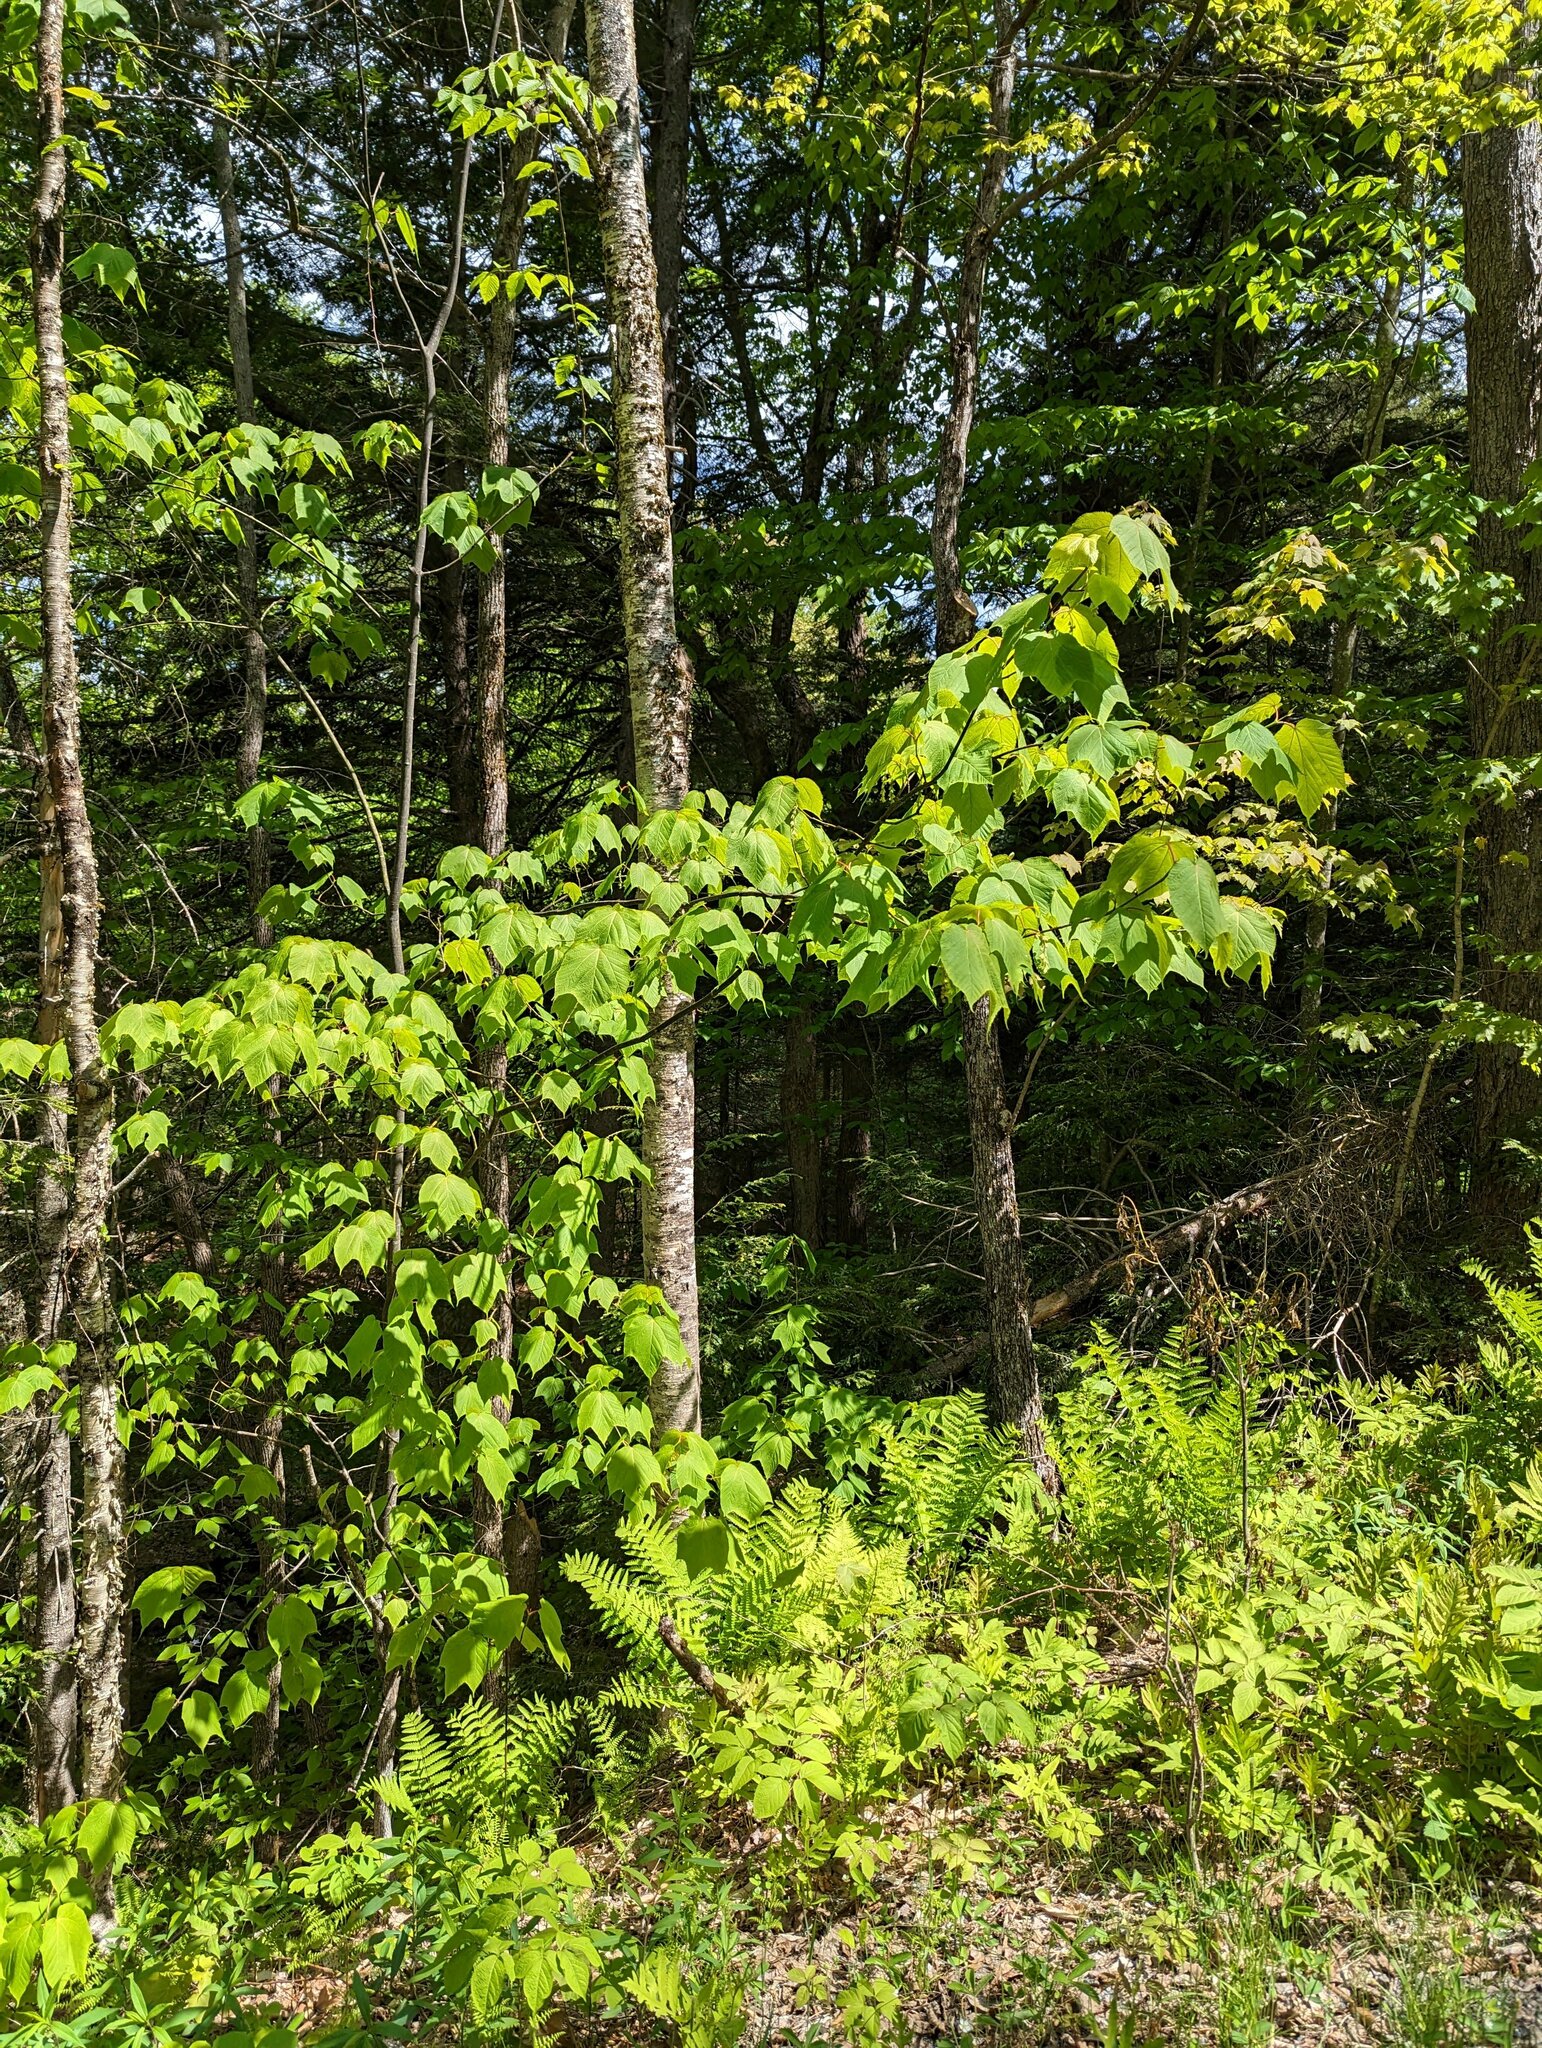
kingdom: Plantae
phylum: Tracheophyta
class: Magnoliopsida
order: Sapindales
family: Sapindaceae
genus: Acer
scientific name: Acer pensylvanicum
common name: Moosewood
